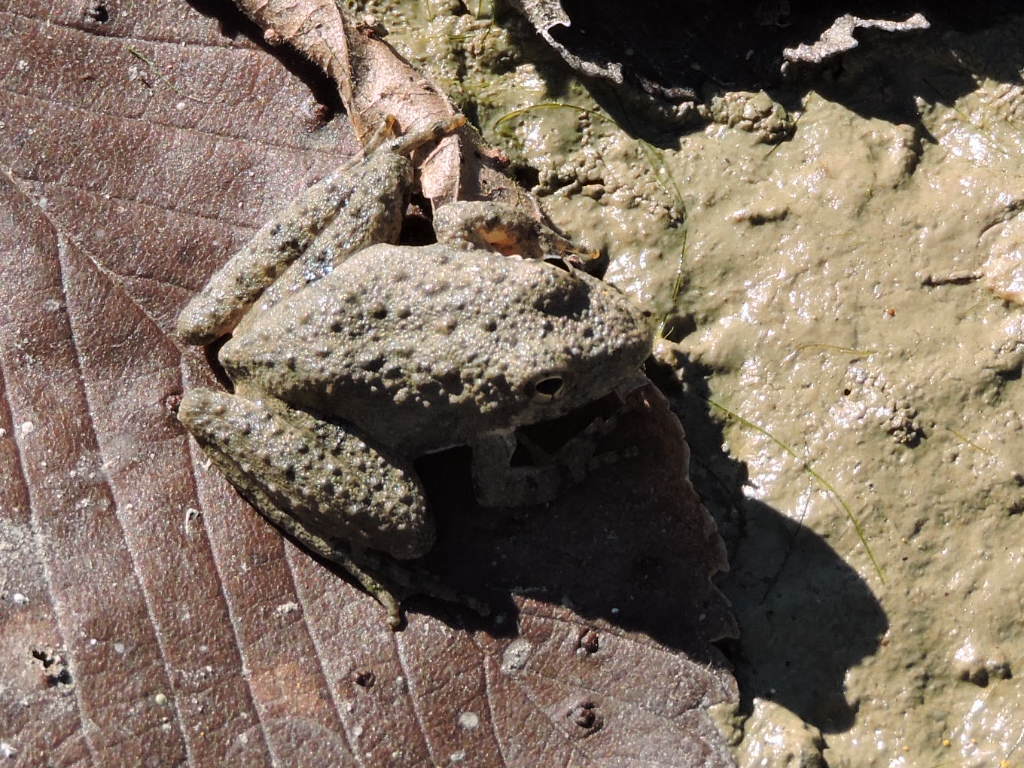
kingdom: Animalia
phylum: Chordata
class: Amphibia
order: Anura
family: Hylidae
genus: Acris
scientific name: Acris blanchardi
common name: Blanchard's cricket frog
